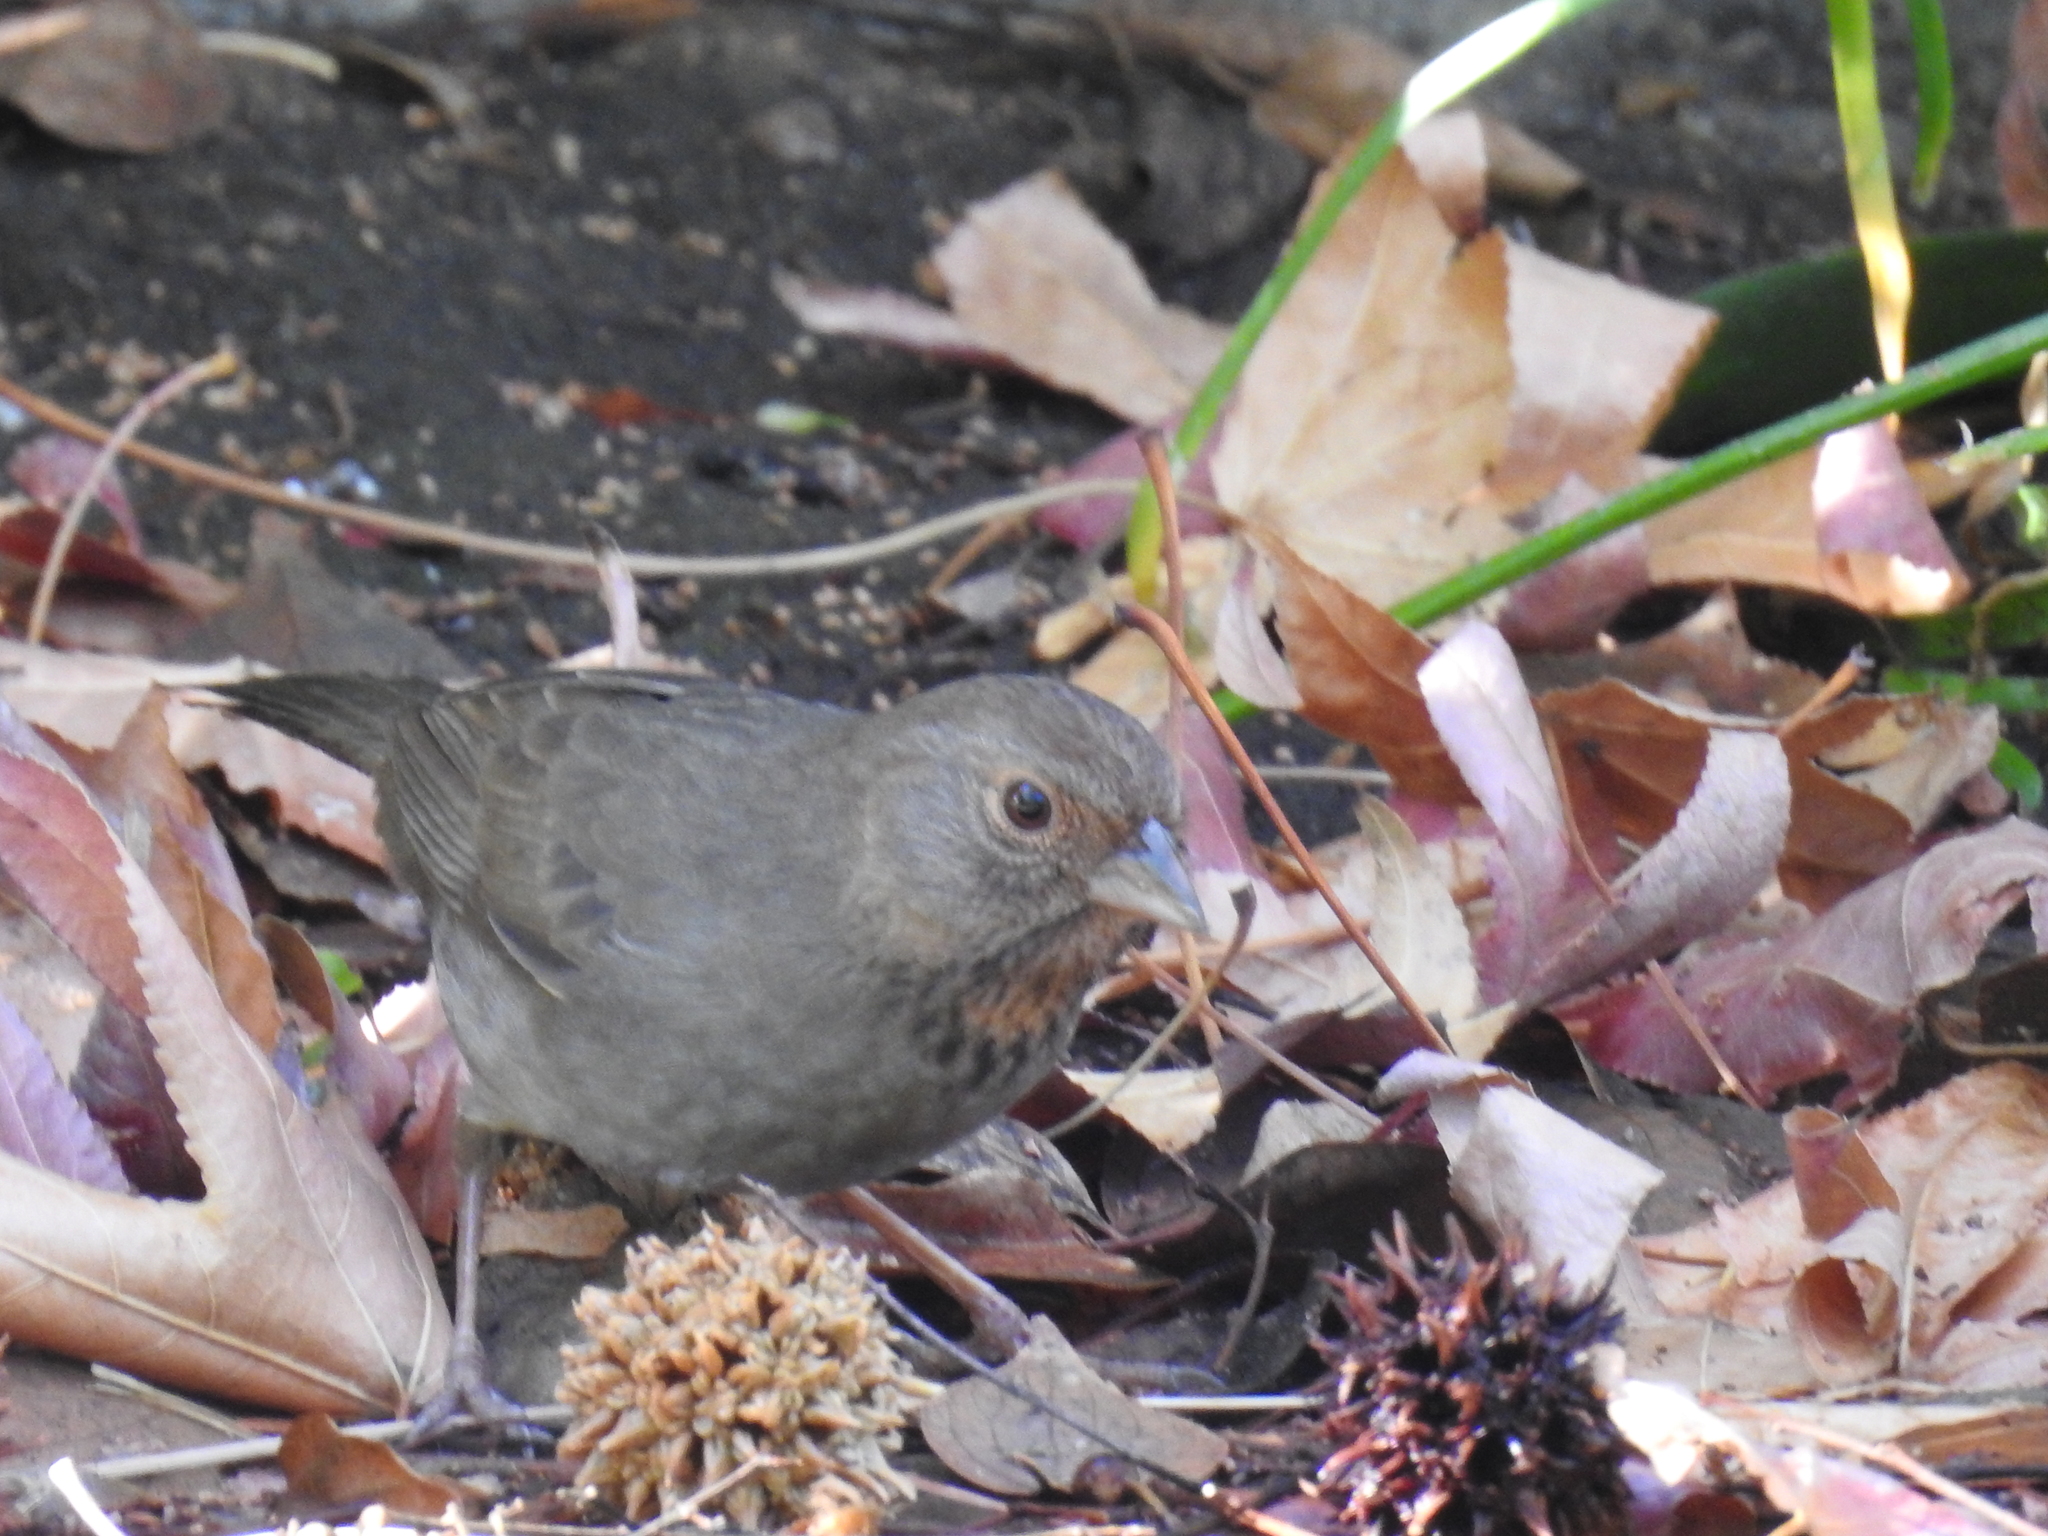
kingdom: Animalia
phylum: Chordata
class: Aves
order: Passeriformes
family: Passerellidae
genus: Melozone
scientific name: Melozone crissalis
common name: California towhee
